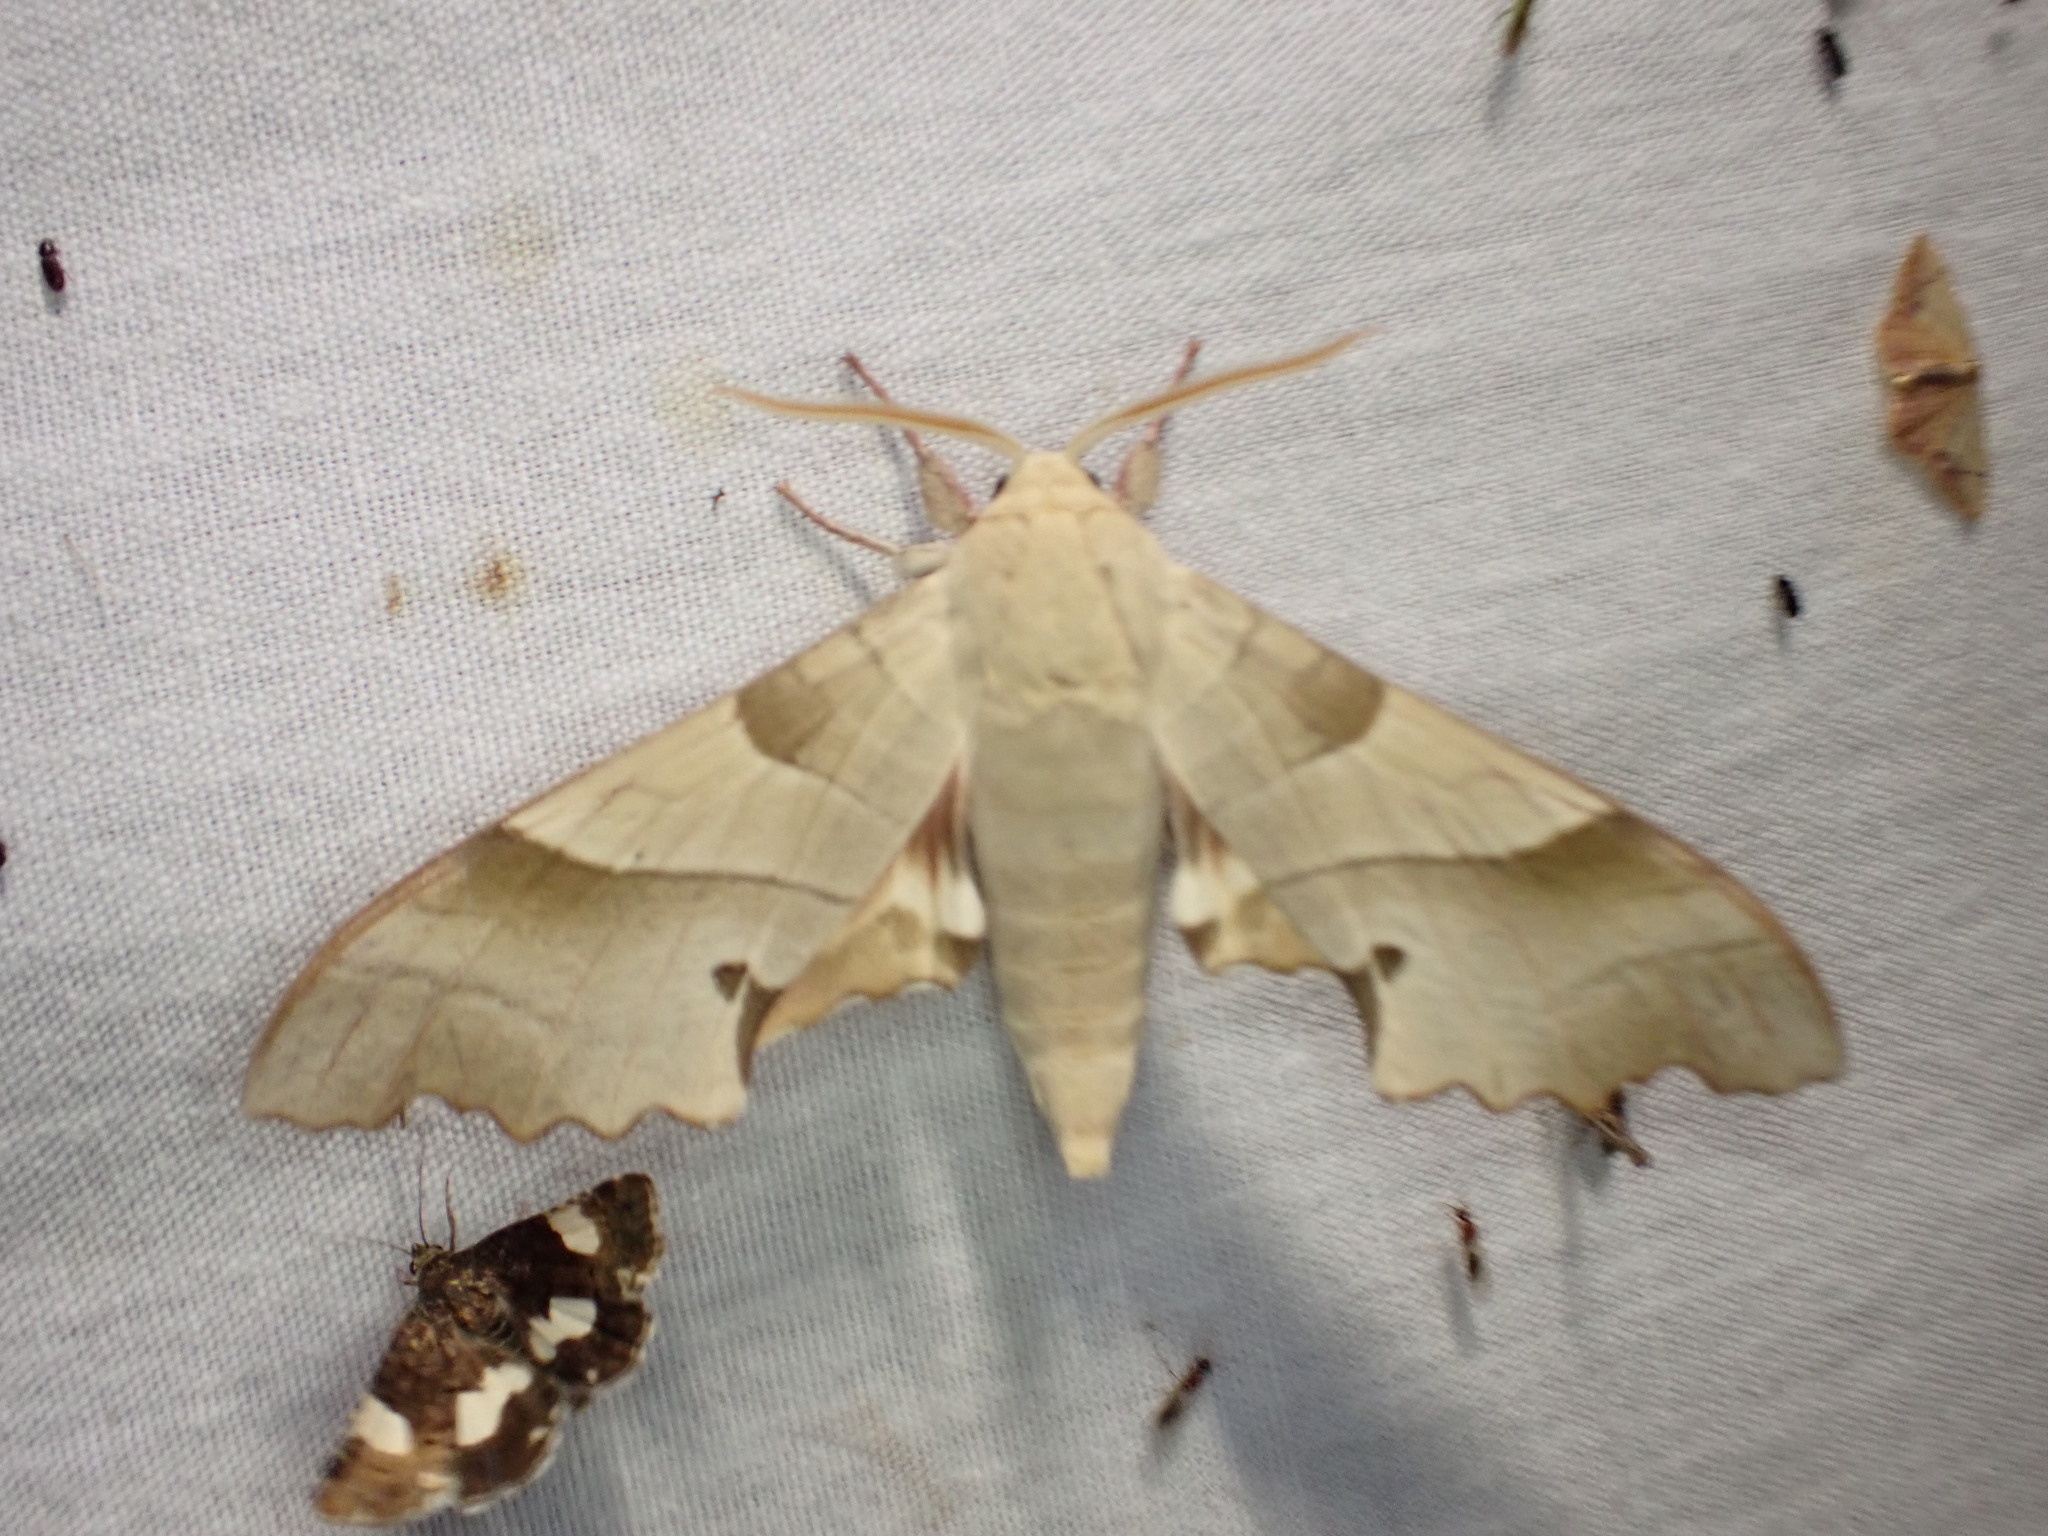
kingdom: Animalia
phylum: Arthropoda
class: Insecta
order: Lepidoptera
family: Sphingidae
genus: Marumba
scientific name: Marumba quercus
